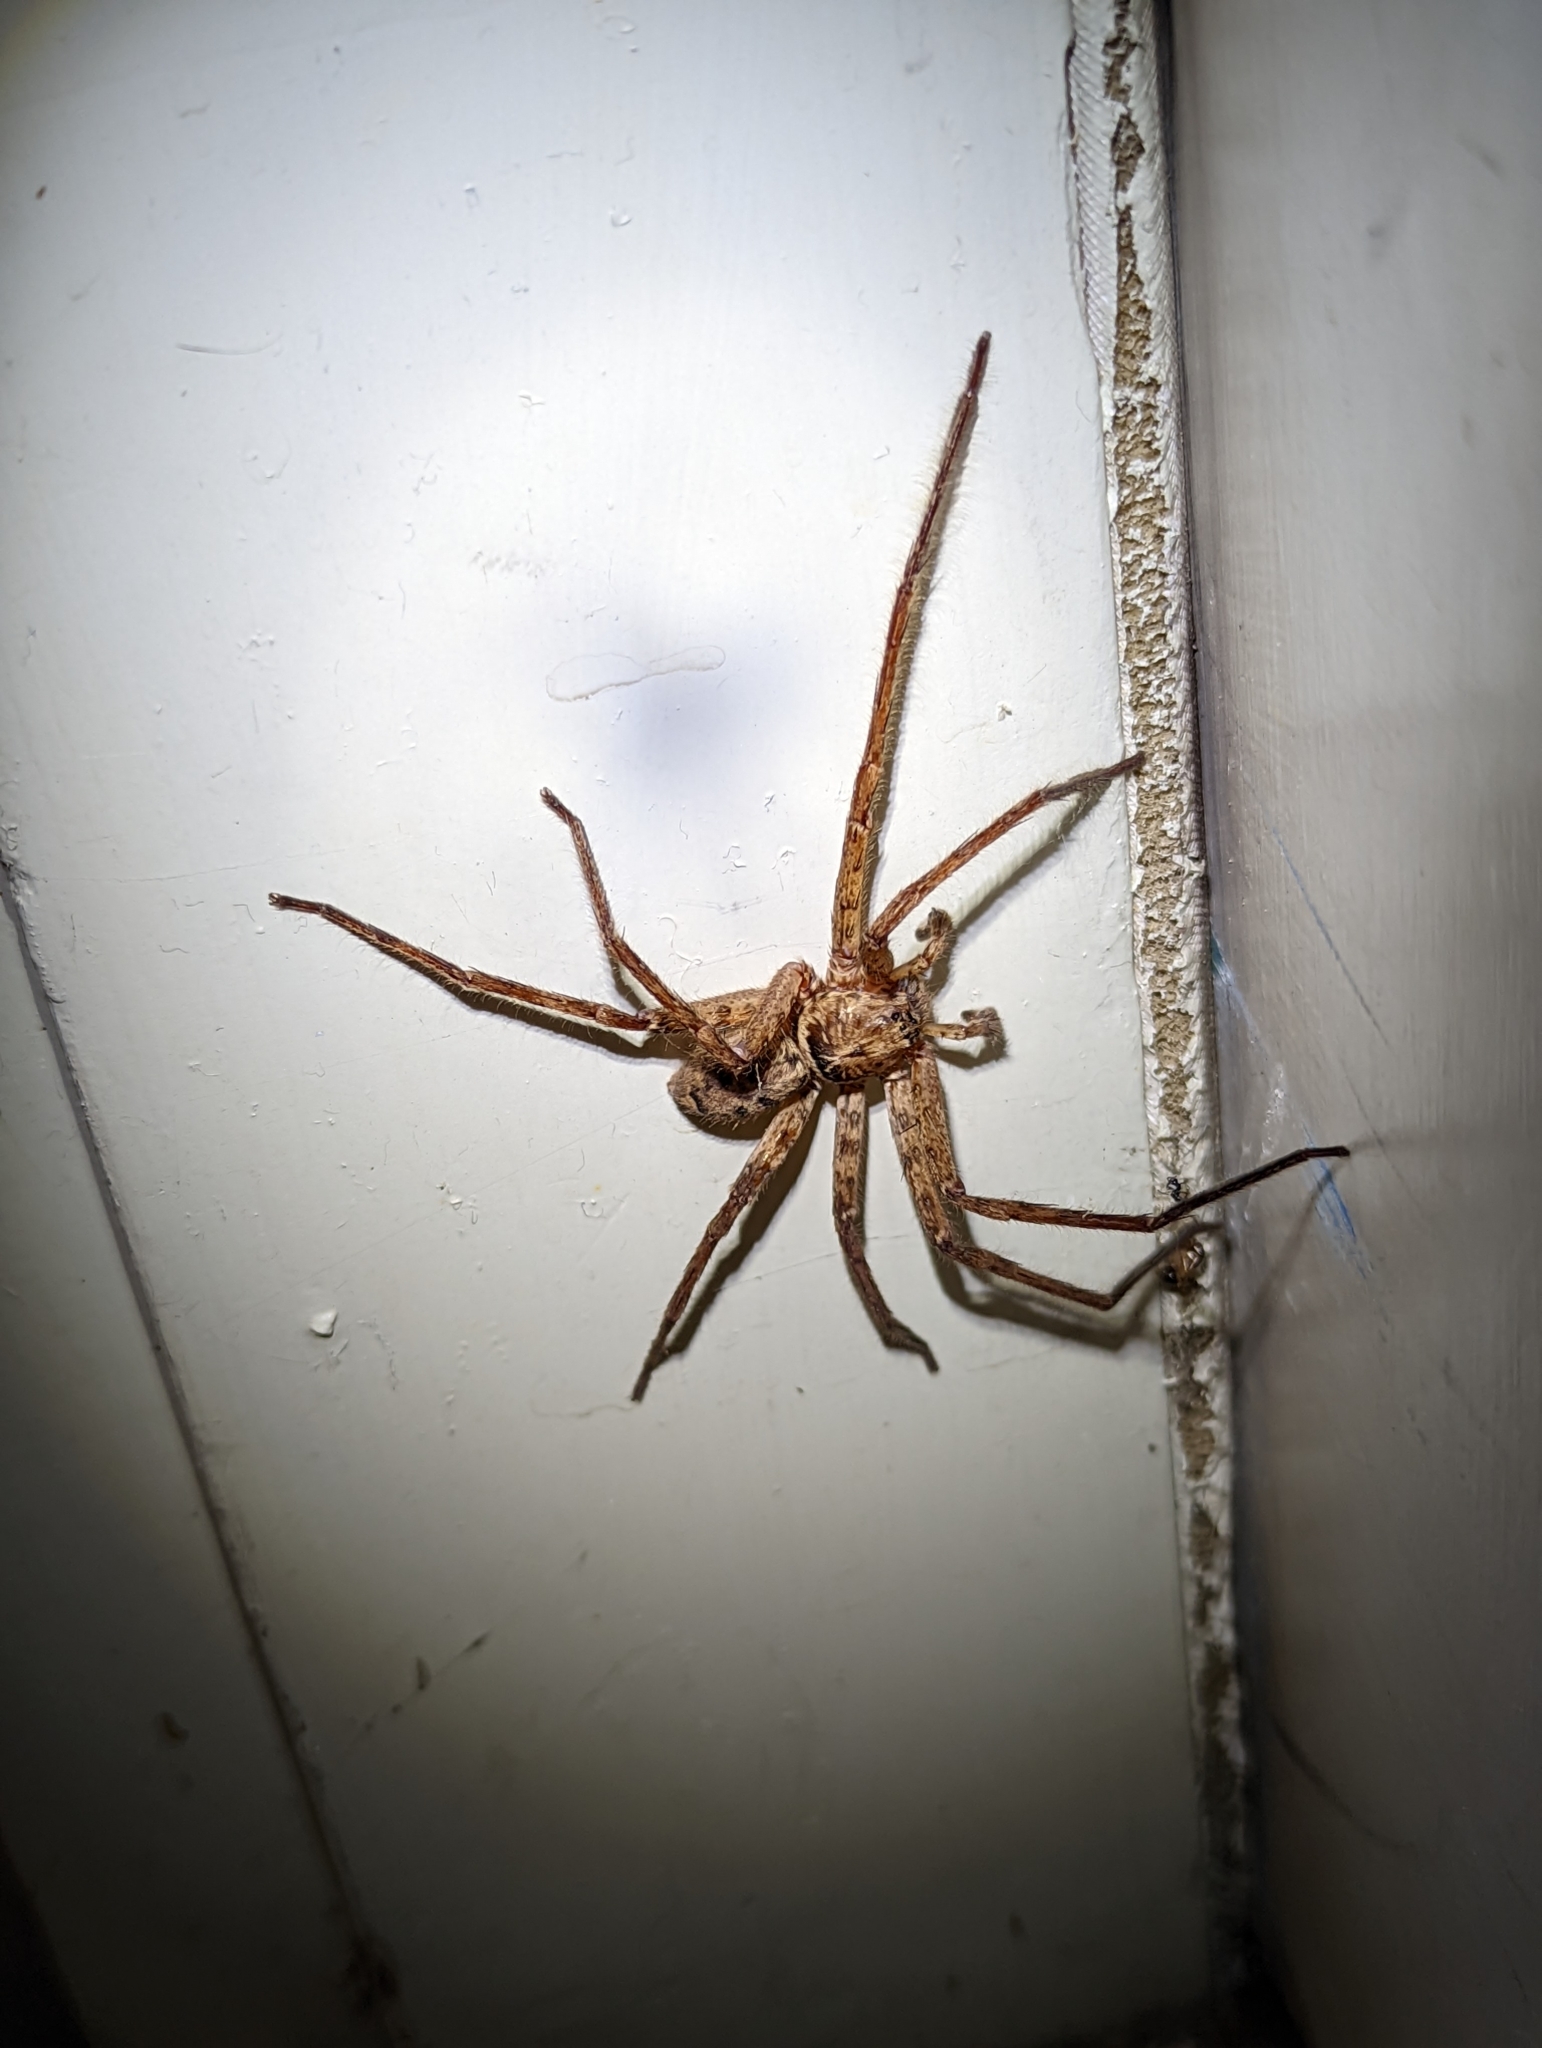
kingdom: Animalia
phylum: Arthropoda
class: Arachnida
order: Araneae
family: Sparassidae
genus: Heteropoda
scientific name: Heteropoda jugulans
